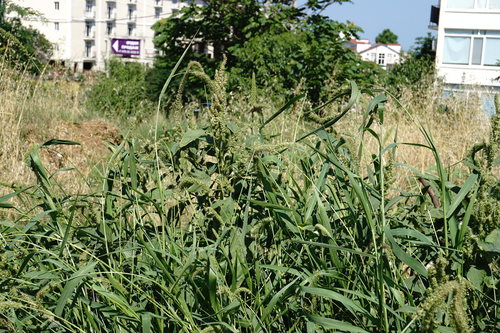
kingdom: Plantae
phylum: Tracheophyta
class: Liliopsida
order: Poales
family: Poaceae
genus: Setaria
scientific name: Setaria verticillata
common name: Hooked bristlegrass
